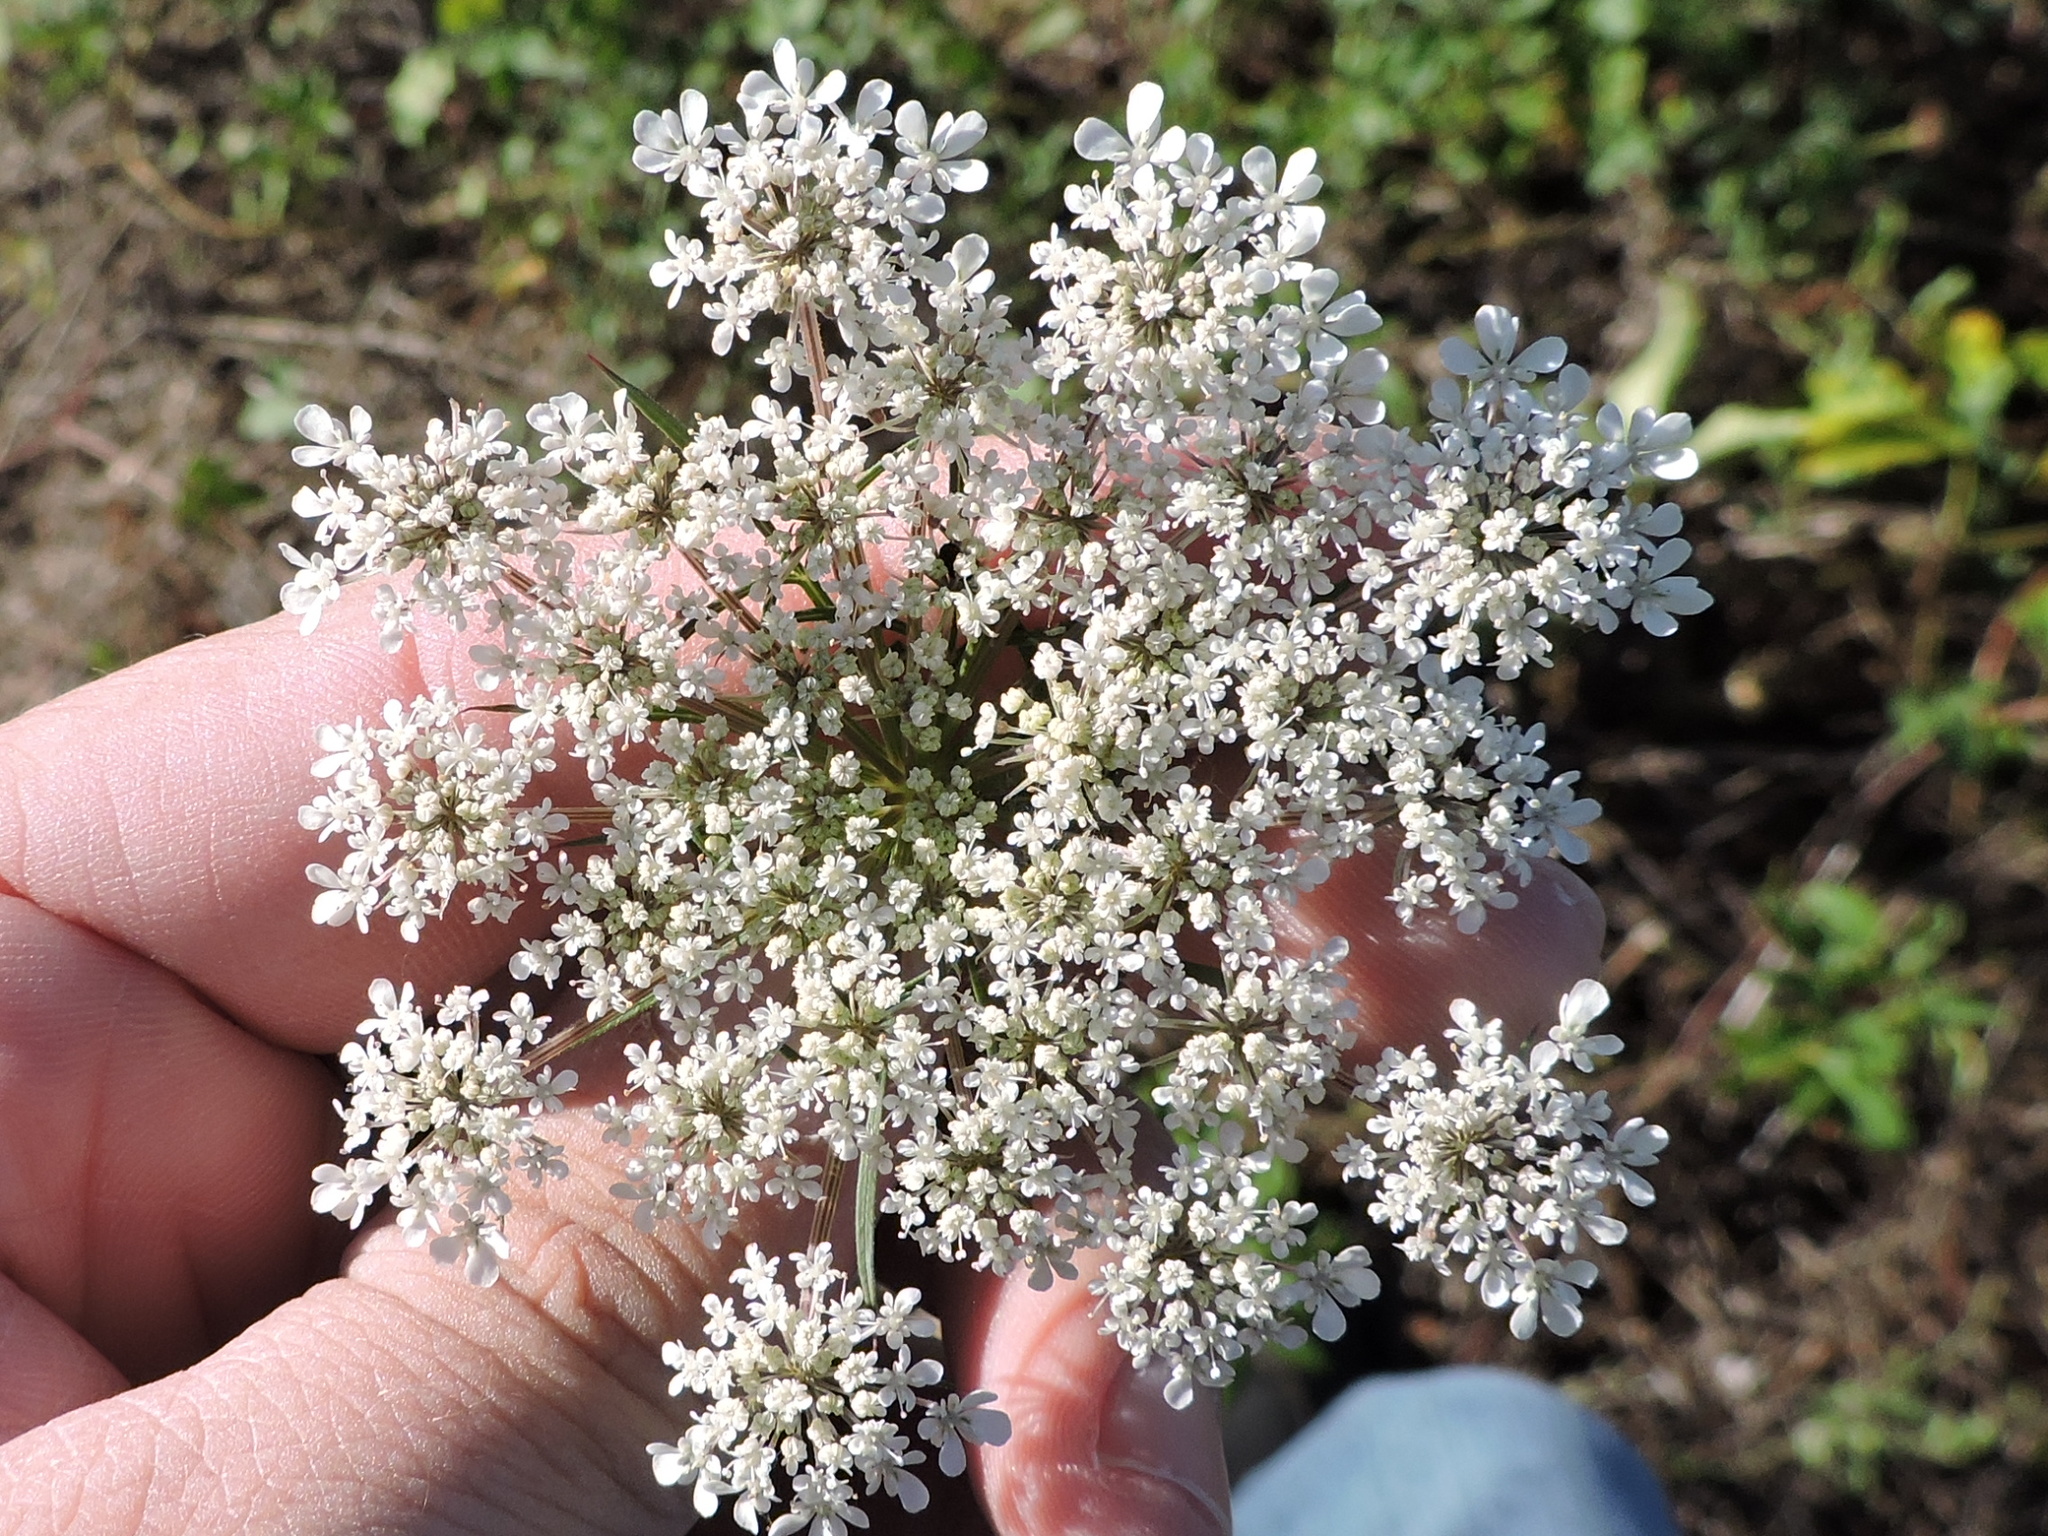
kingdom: Plantae
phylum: Tracheophyta
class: Magnoliopsida
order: Apiales
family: Apiaceae
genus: Daucus
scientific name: Daucus carota
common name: Wild carrot
